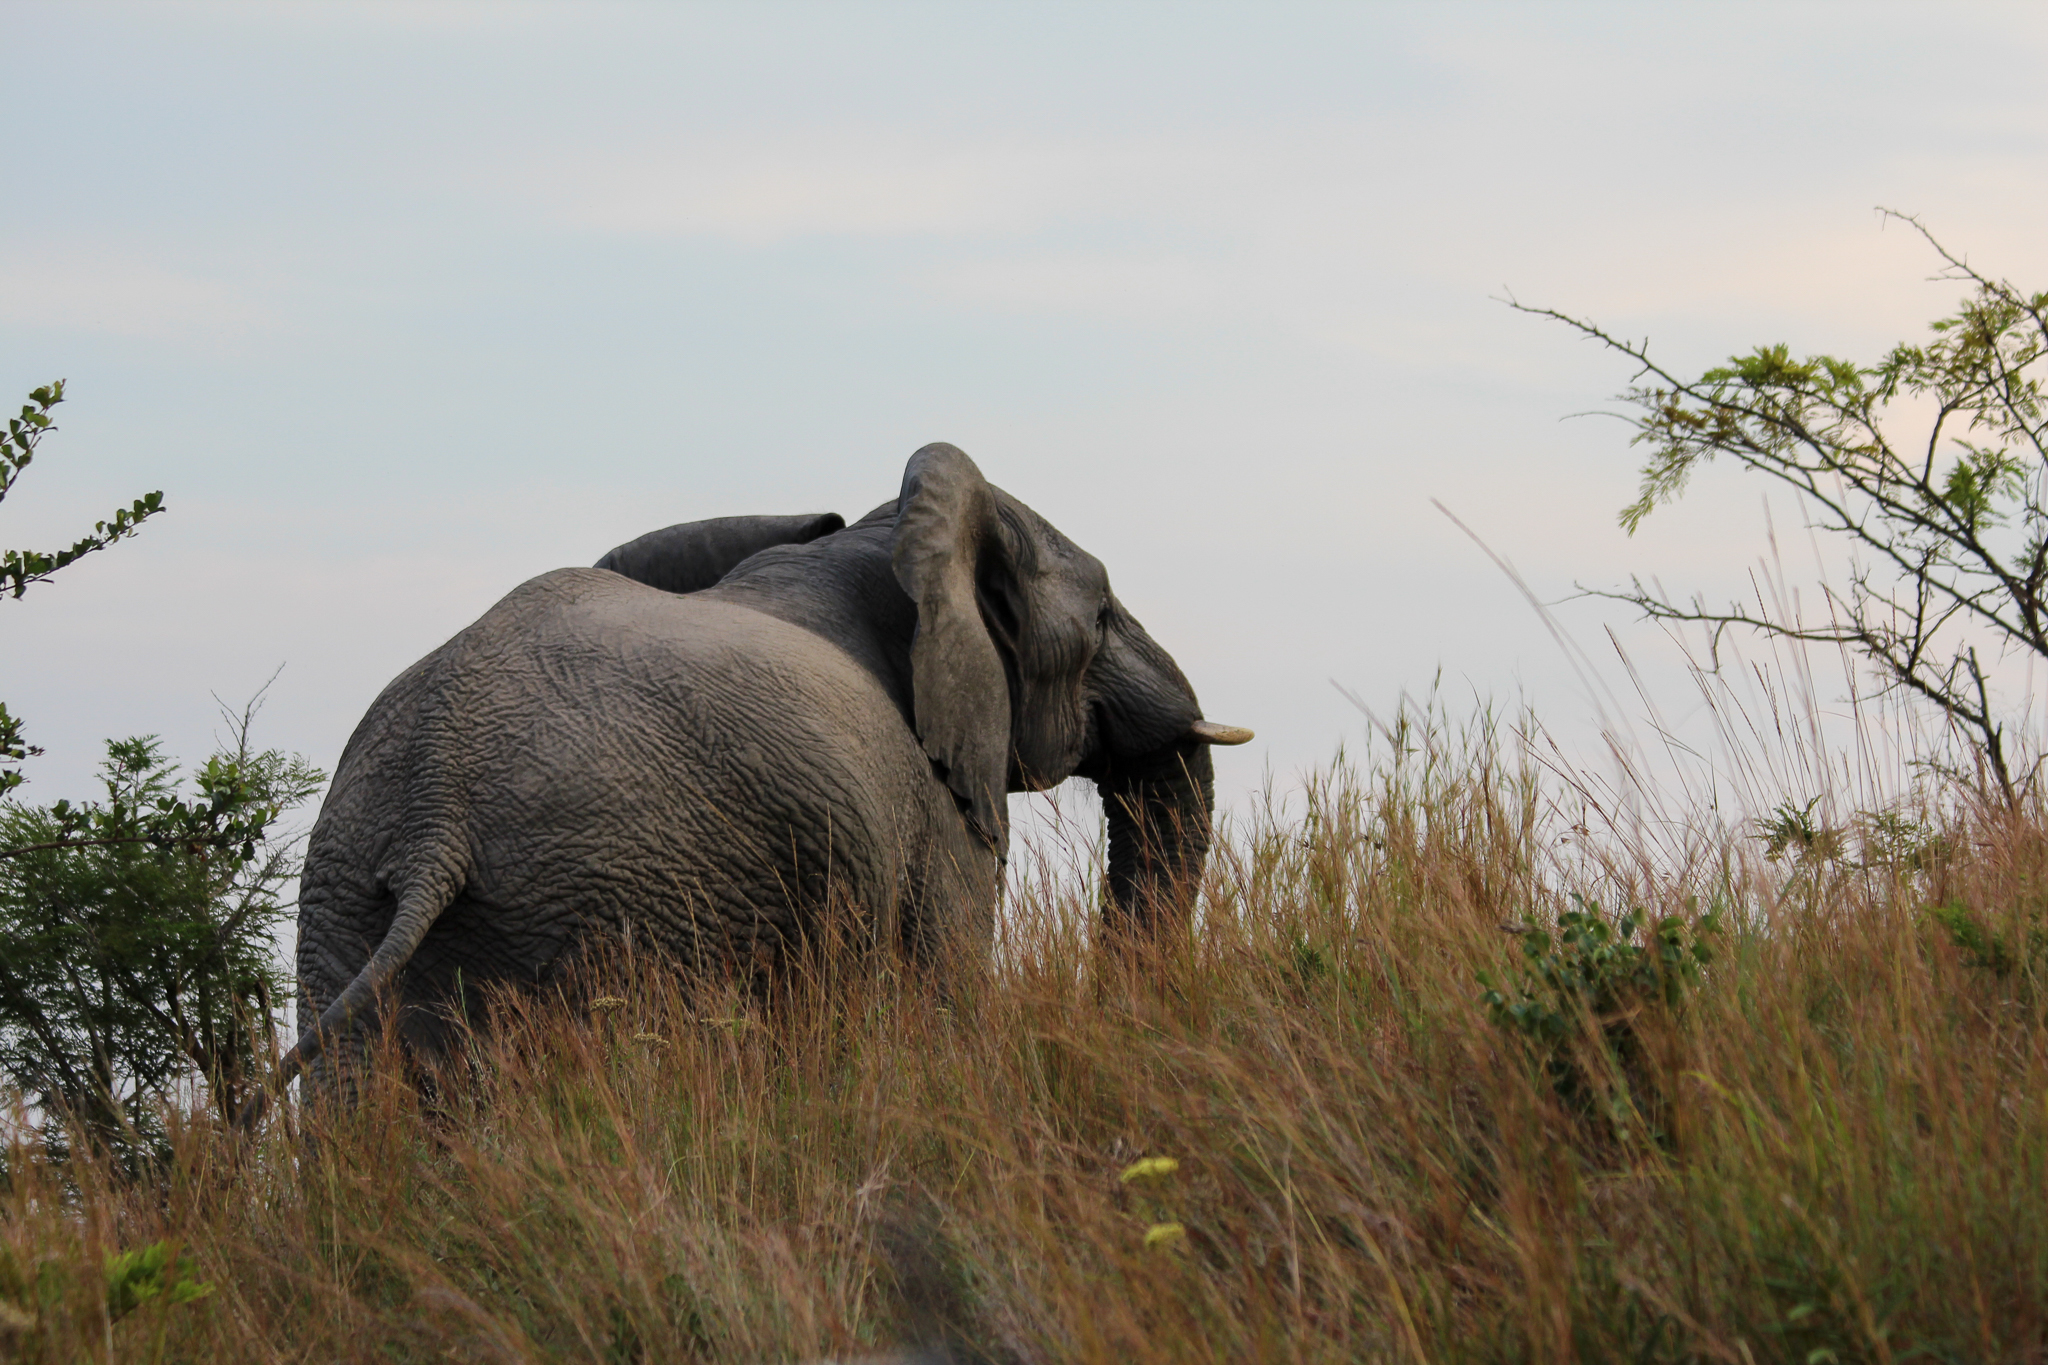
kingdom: Animalia
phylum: Chordata
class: Mammalia
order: Proboscidea
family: Elephantidae
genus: Loxodonta
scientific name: Loxodonta africana
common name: African elephant
